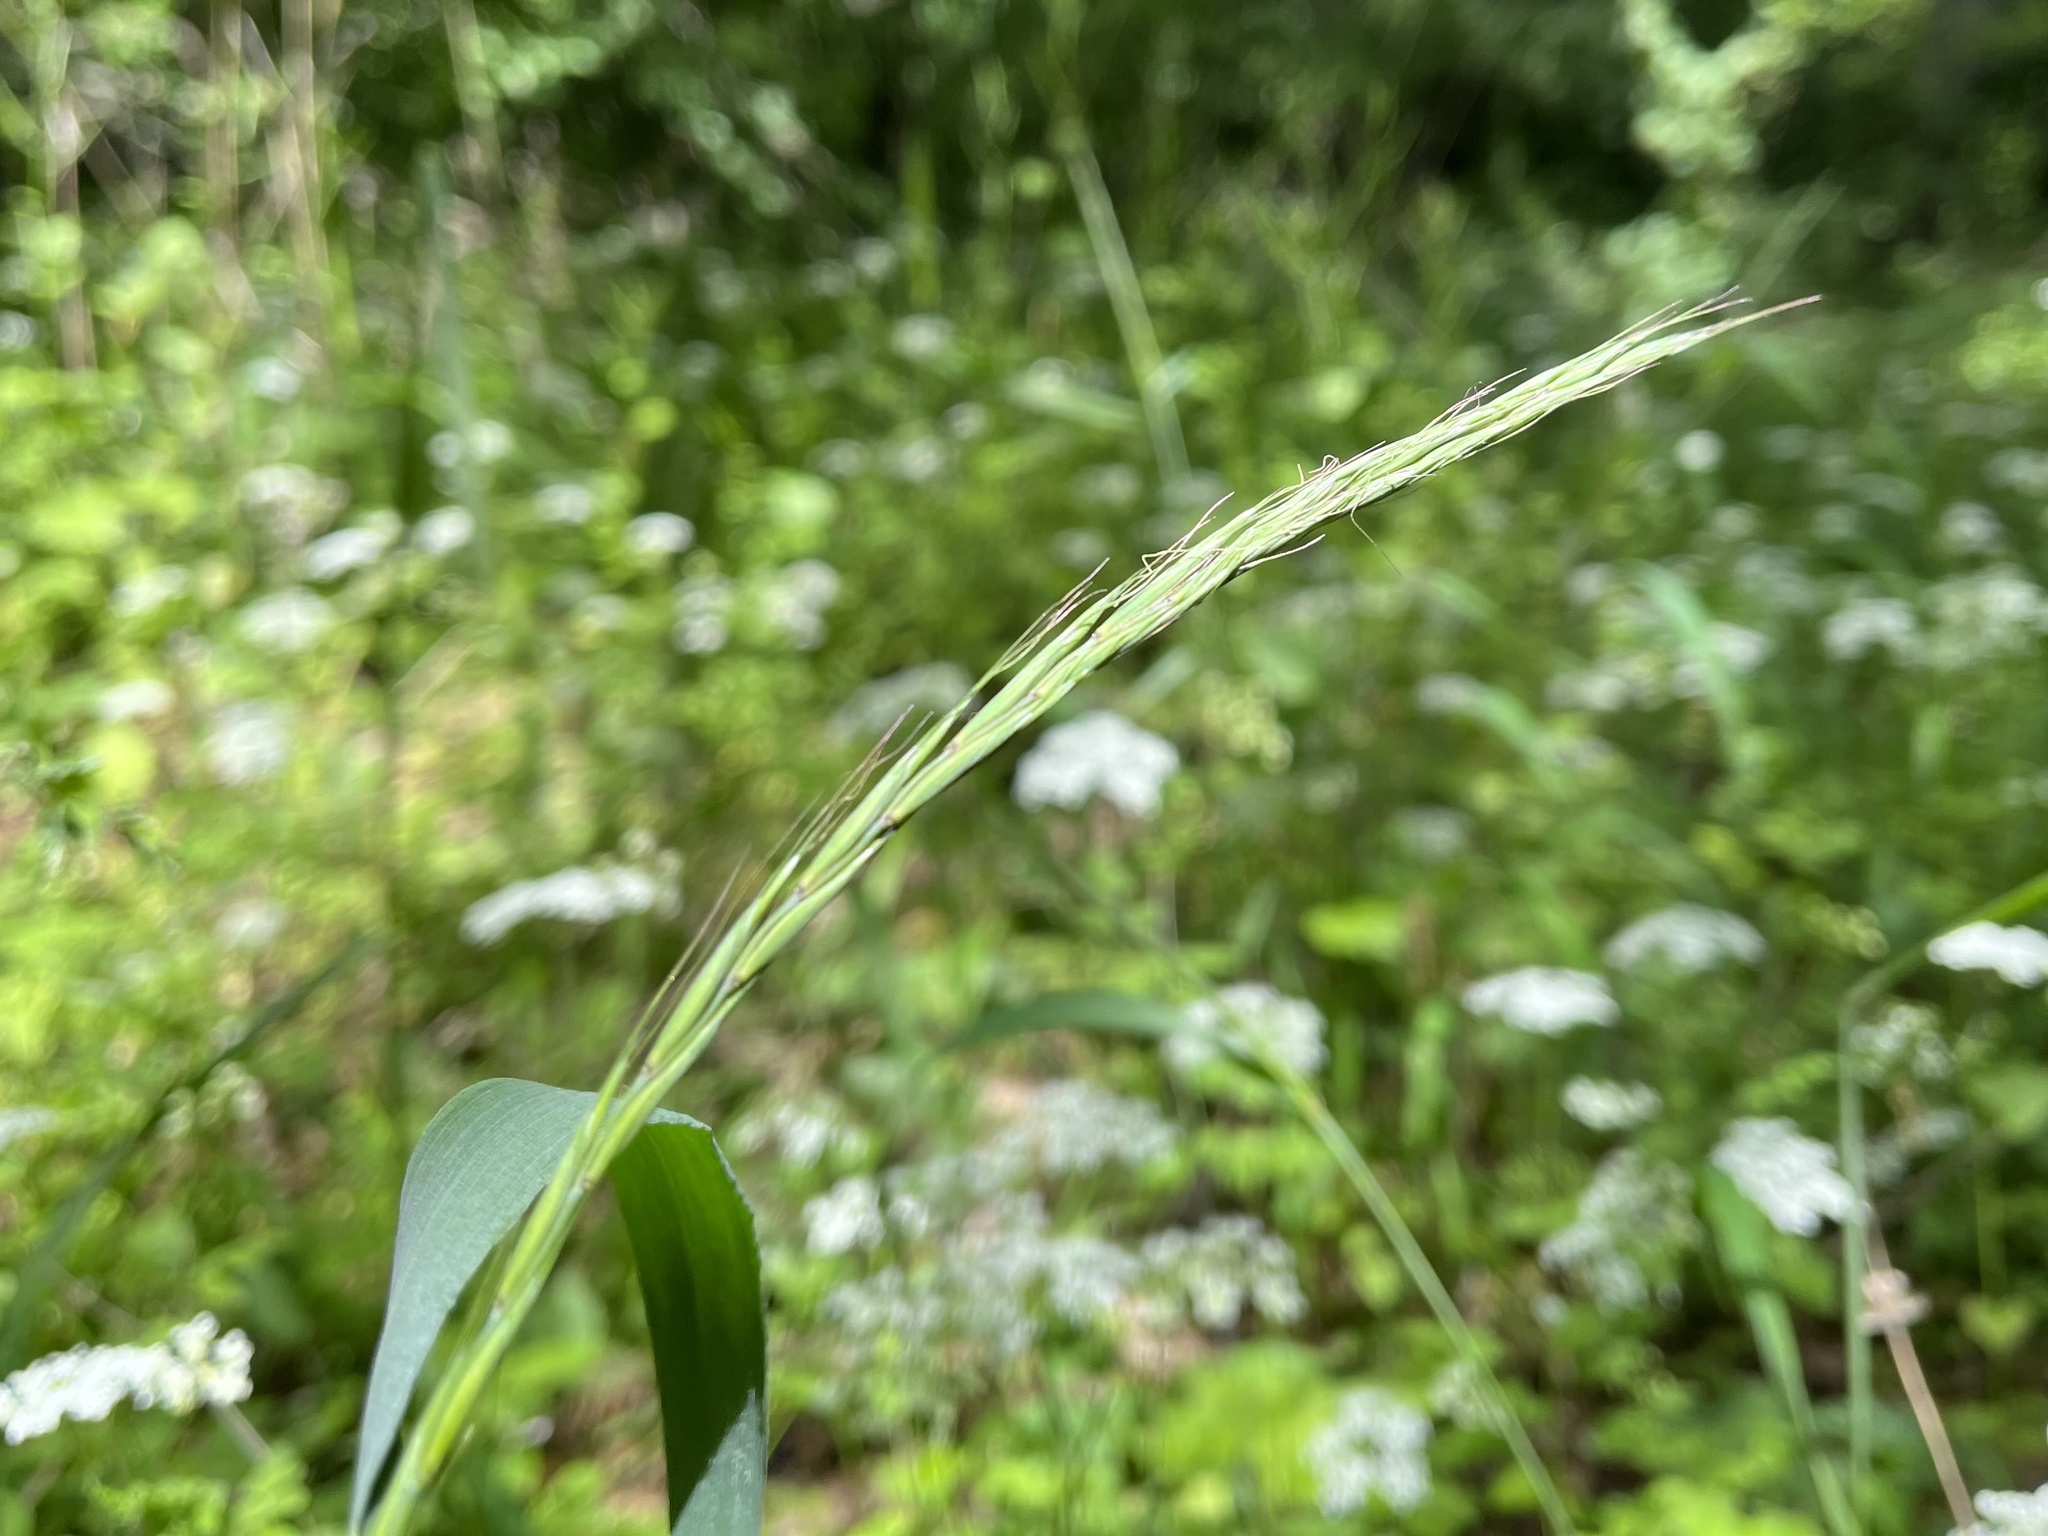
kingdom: Plantae
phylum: Tracheophyta
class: Liliopsida
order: Poales
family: Poaceae
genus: Elymus
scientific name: Elymus caninus
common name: Bearded couch
